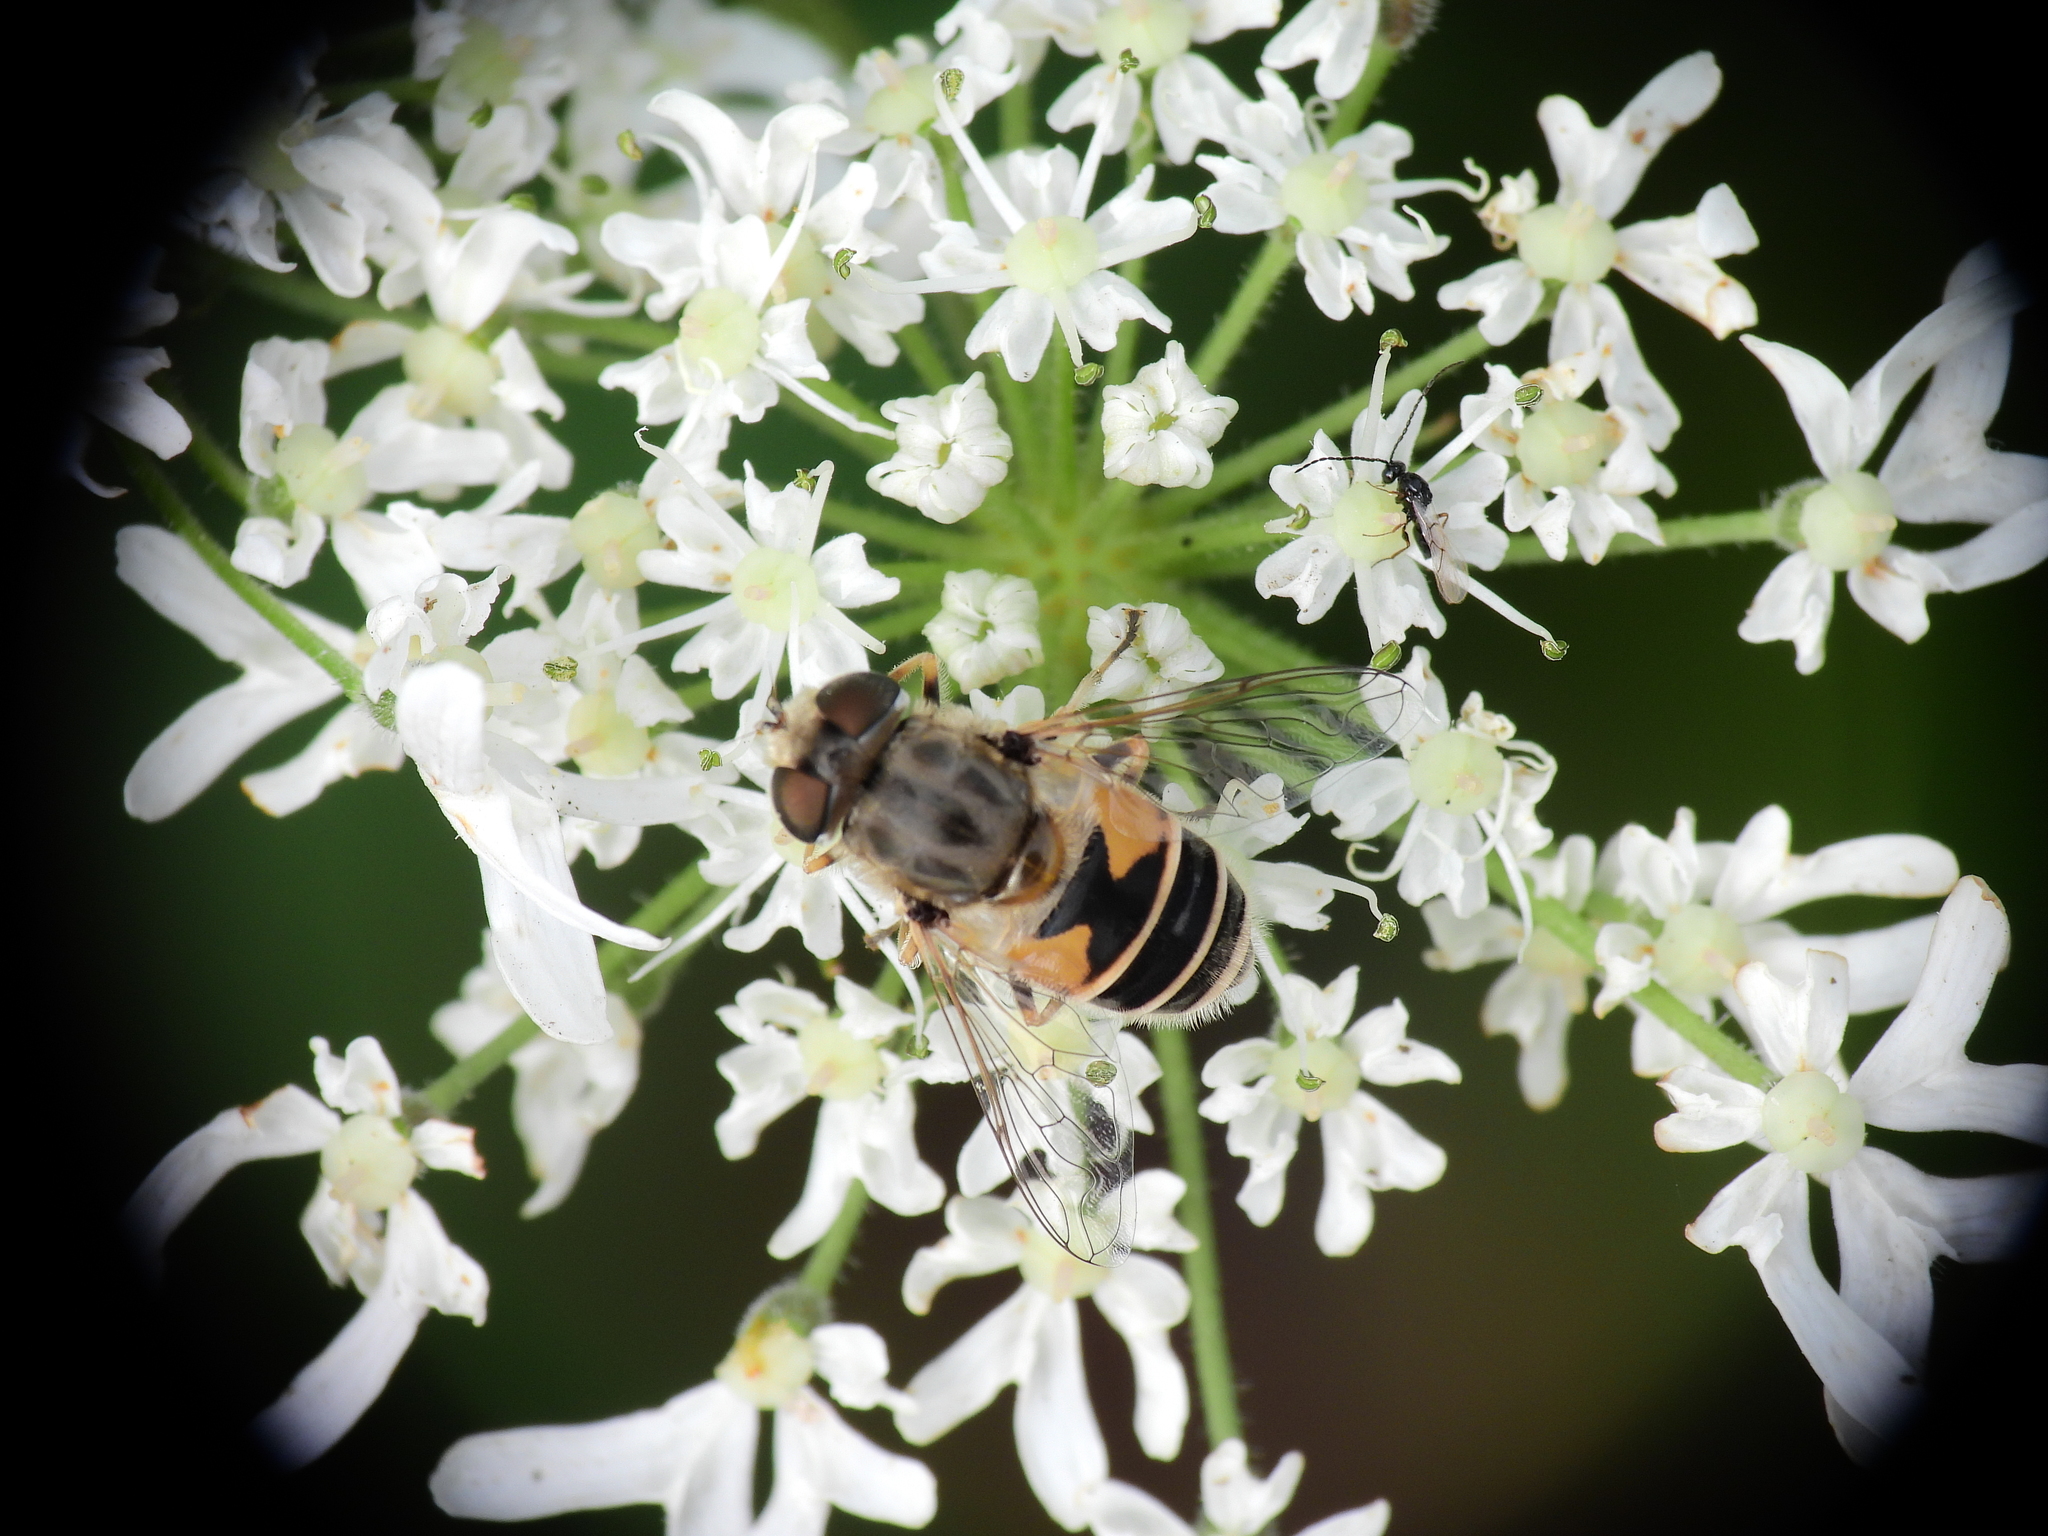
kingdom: Animalia
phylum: Arthropoda
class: Insecta
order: Diptera
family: Syrphidae
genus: Eristalis
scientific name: Eristalis arbustorum
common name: Hover fly
